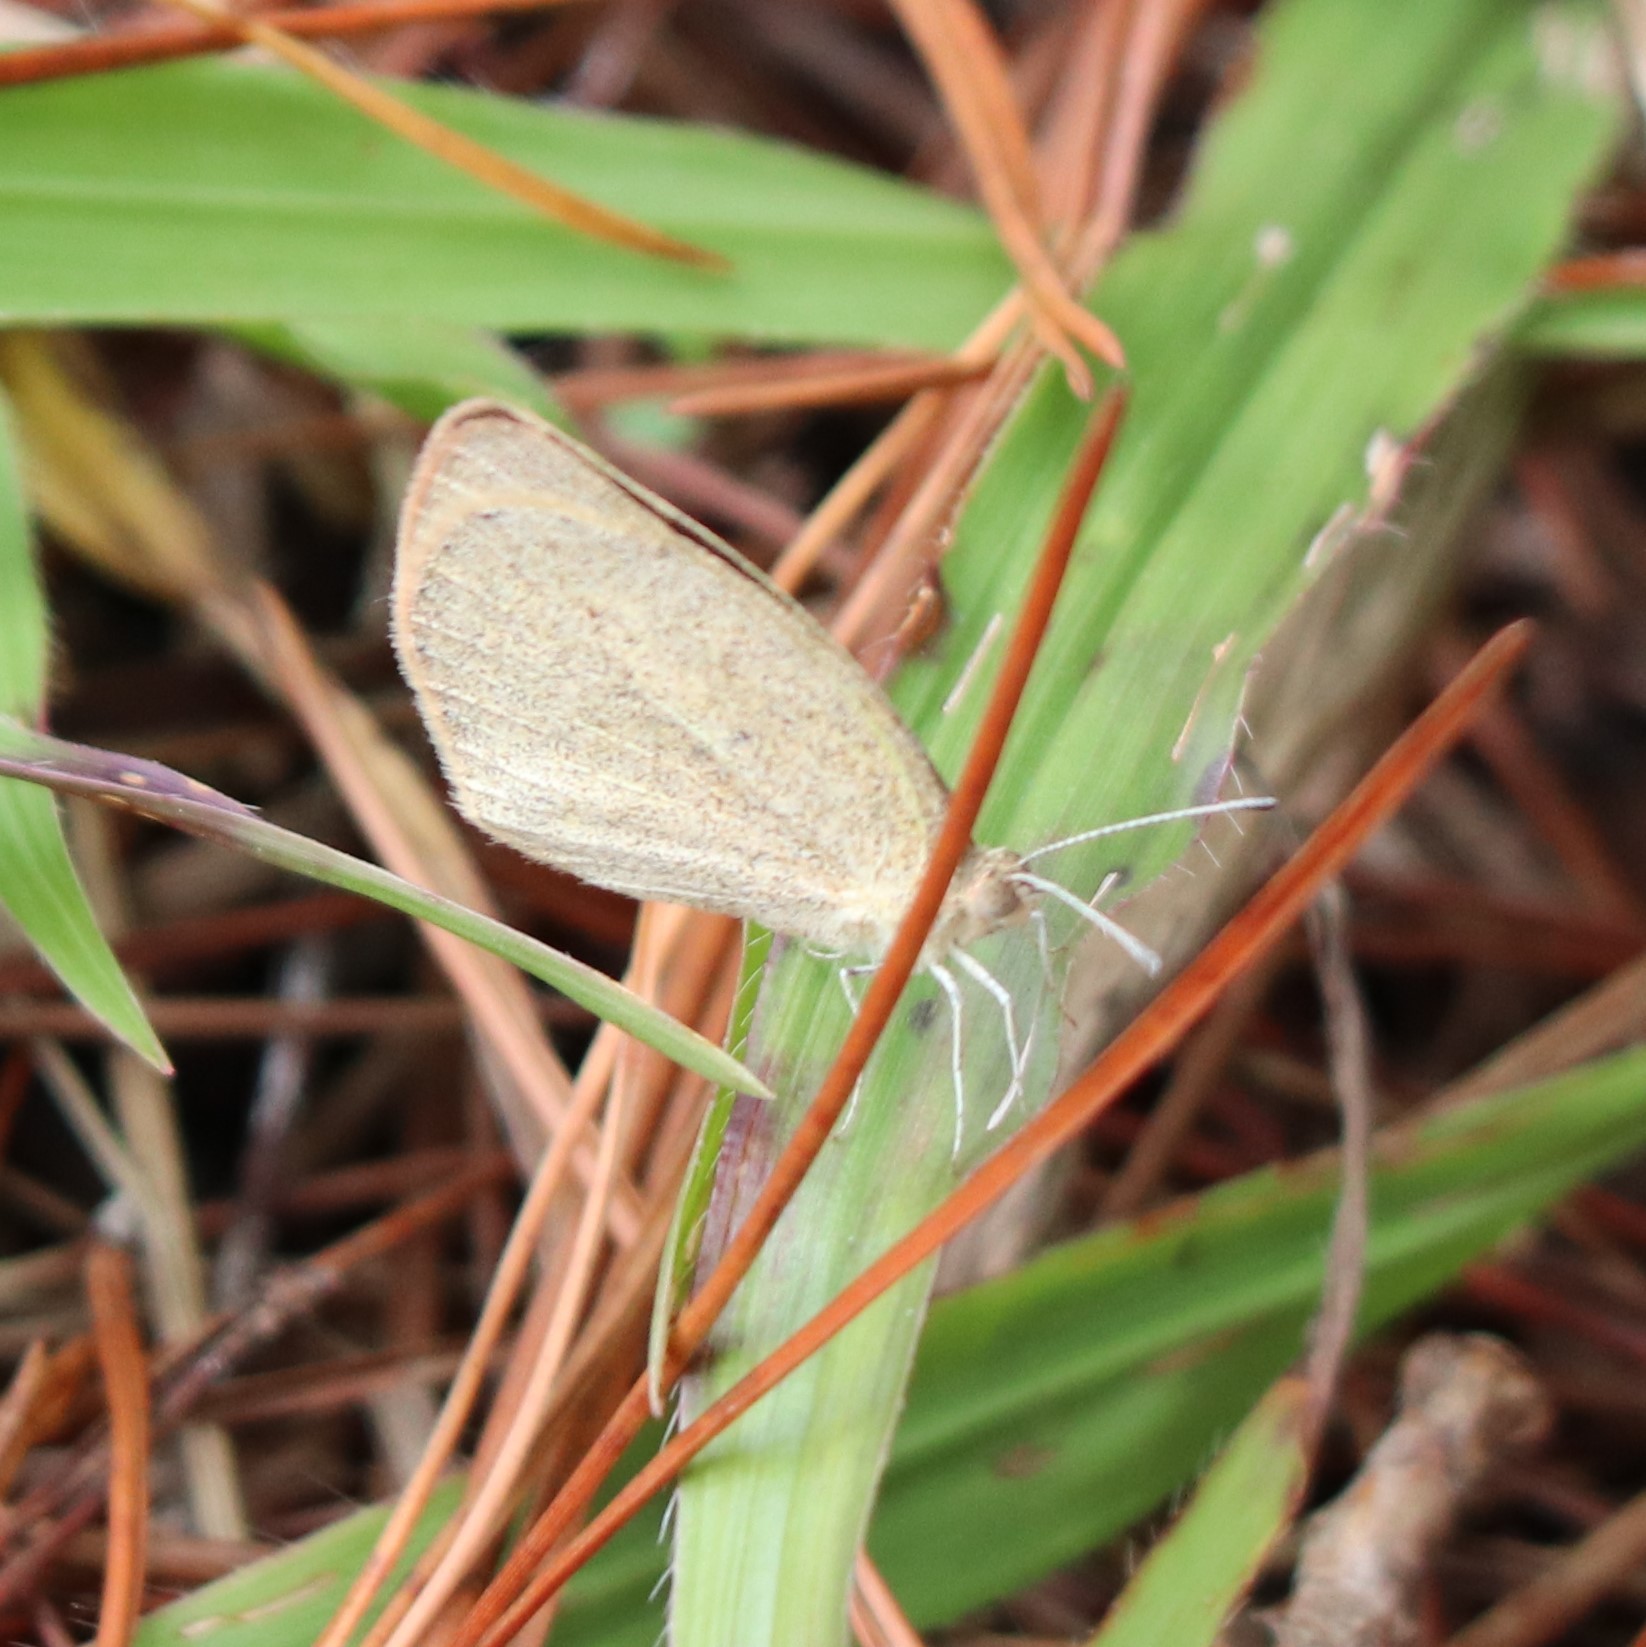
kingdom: Animalia
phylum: Arthropoda
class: Insecta
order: Lepidoptera
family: Pieridae
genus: Eurema
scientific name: Eurema daira
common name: Barred sulphur
